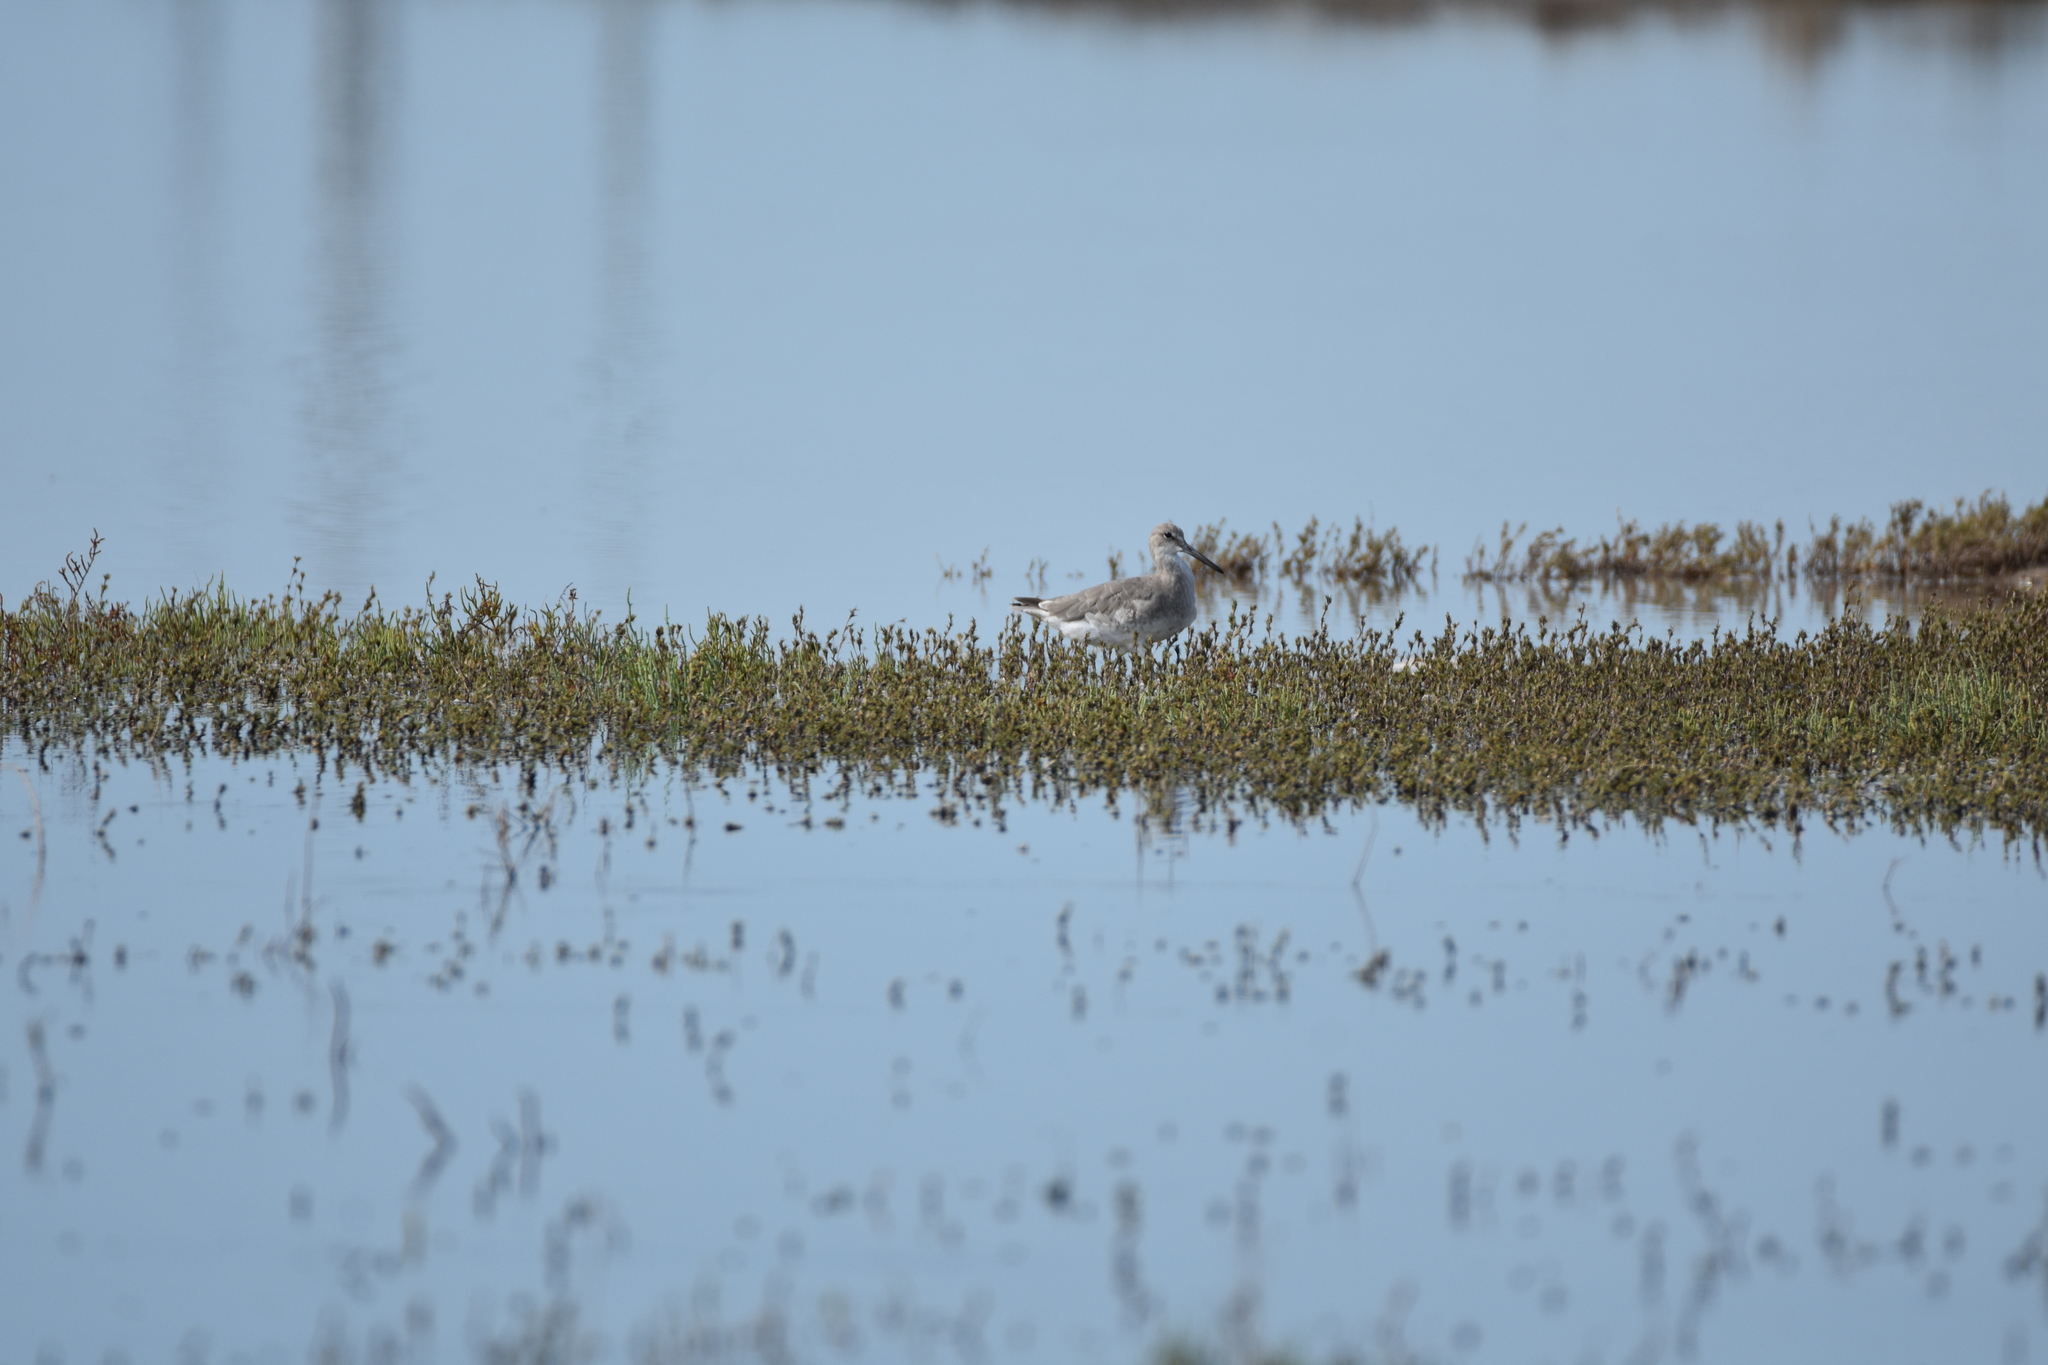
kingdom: Animalia
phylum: Chordata
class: Aves
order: Charadriiformes
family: Scolopacidae
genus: Tringa
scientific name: Tringa semipalmata
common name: Willet
